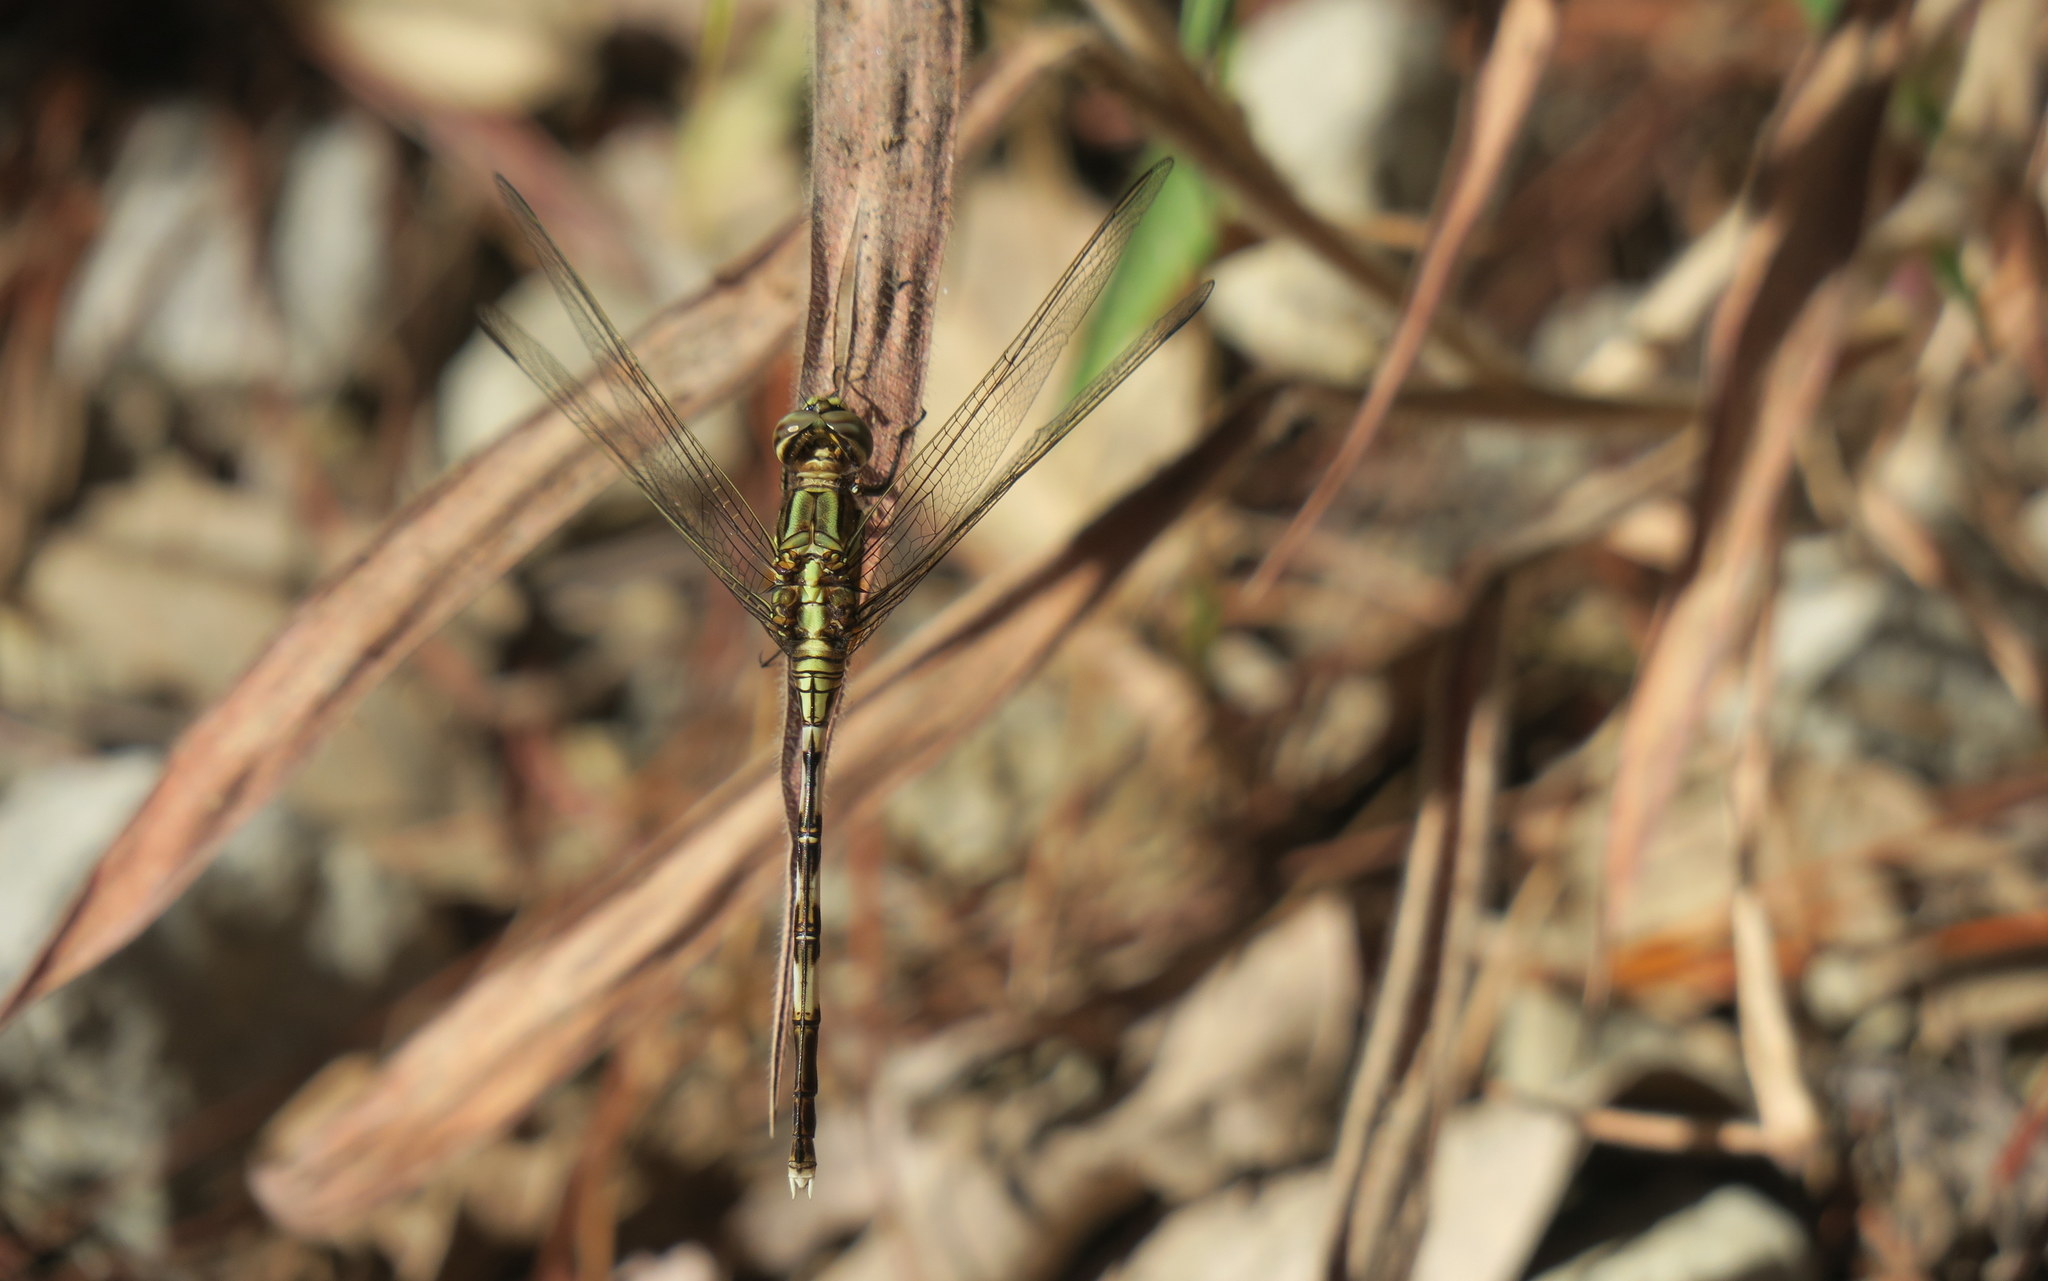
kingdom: Animalia
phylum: Arthropoda
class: Insecta
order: Odonata
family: Libellulidae
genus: Orthetrum
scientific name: Orthetrum sabina
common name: Slender skimmer
